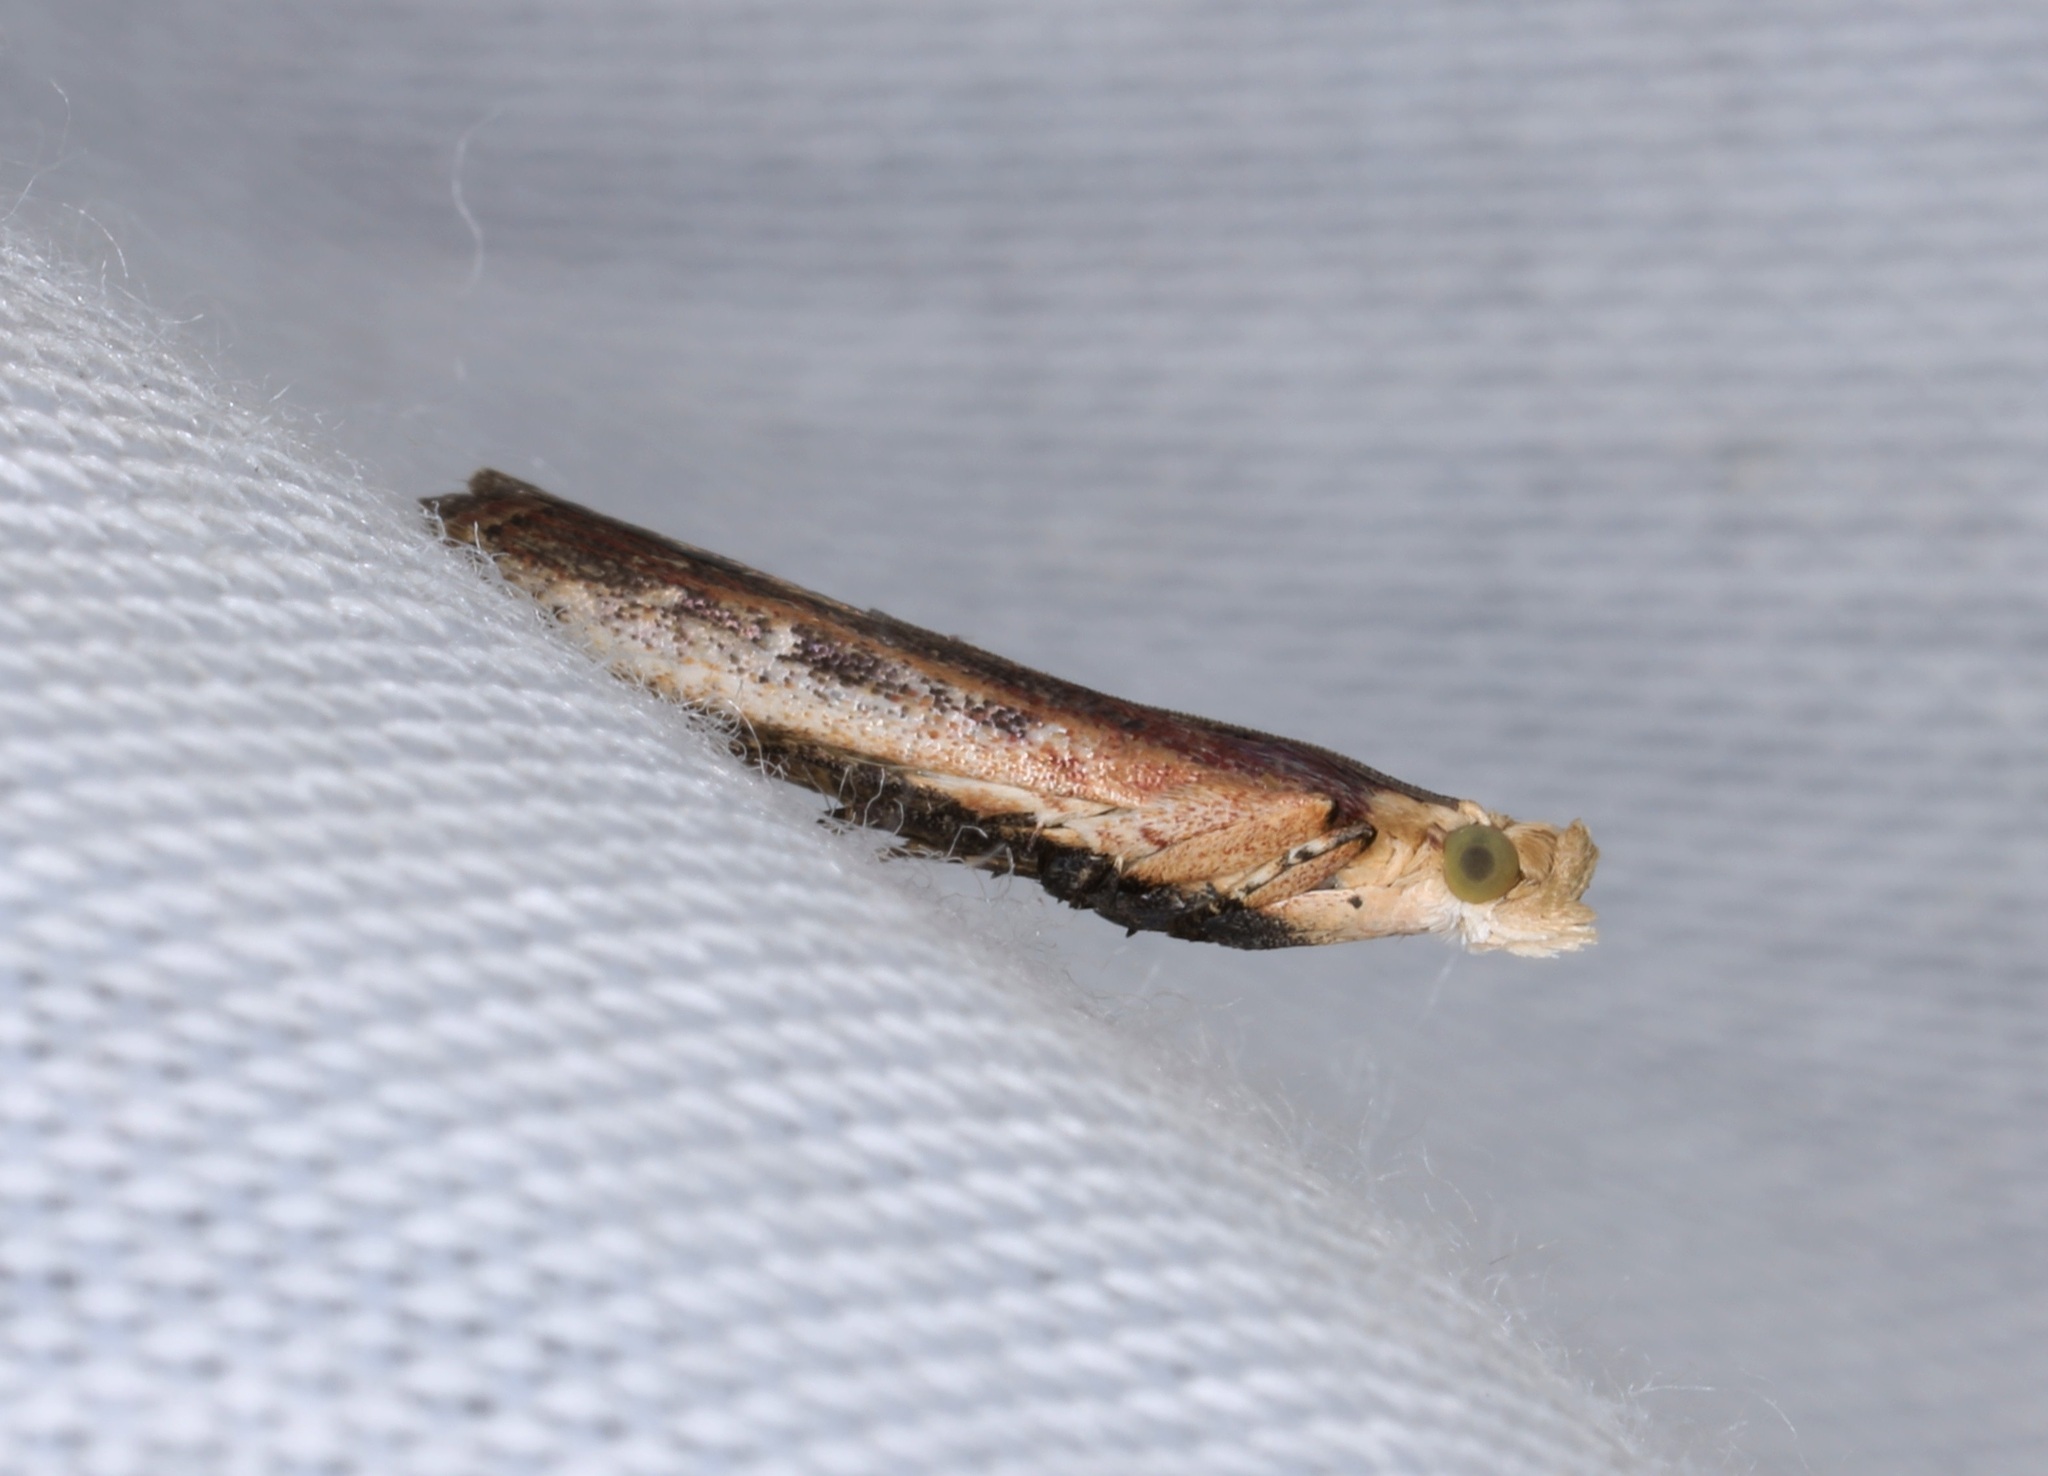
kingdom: Animalia
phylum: Arthropoda
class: Insecta
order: Lepidoptera
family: Pyralidae
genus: Cathyalia
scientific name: Cathyalia
